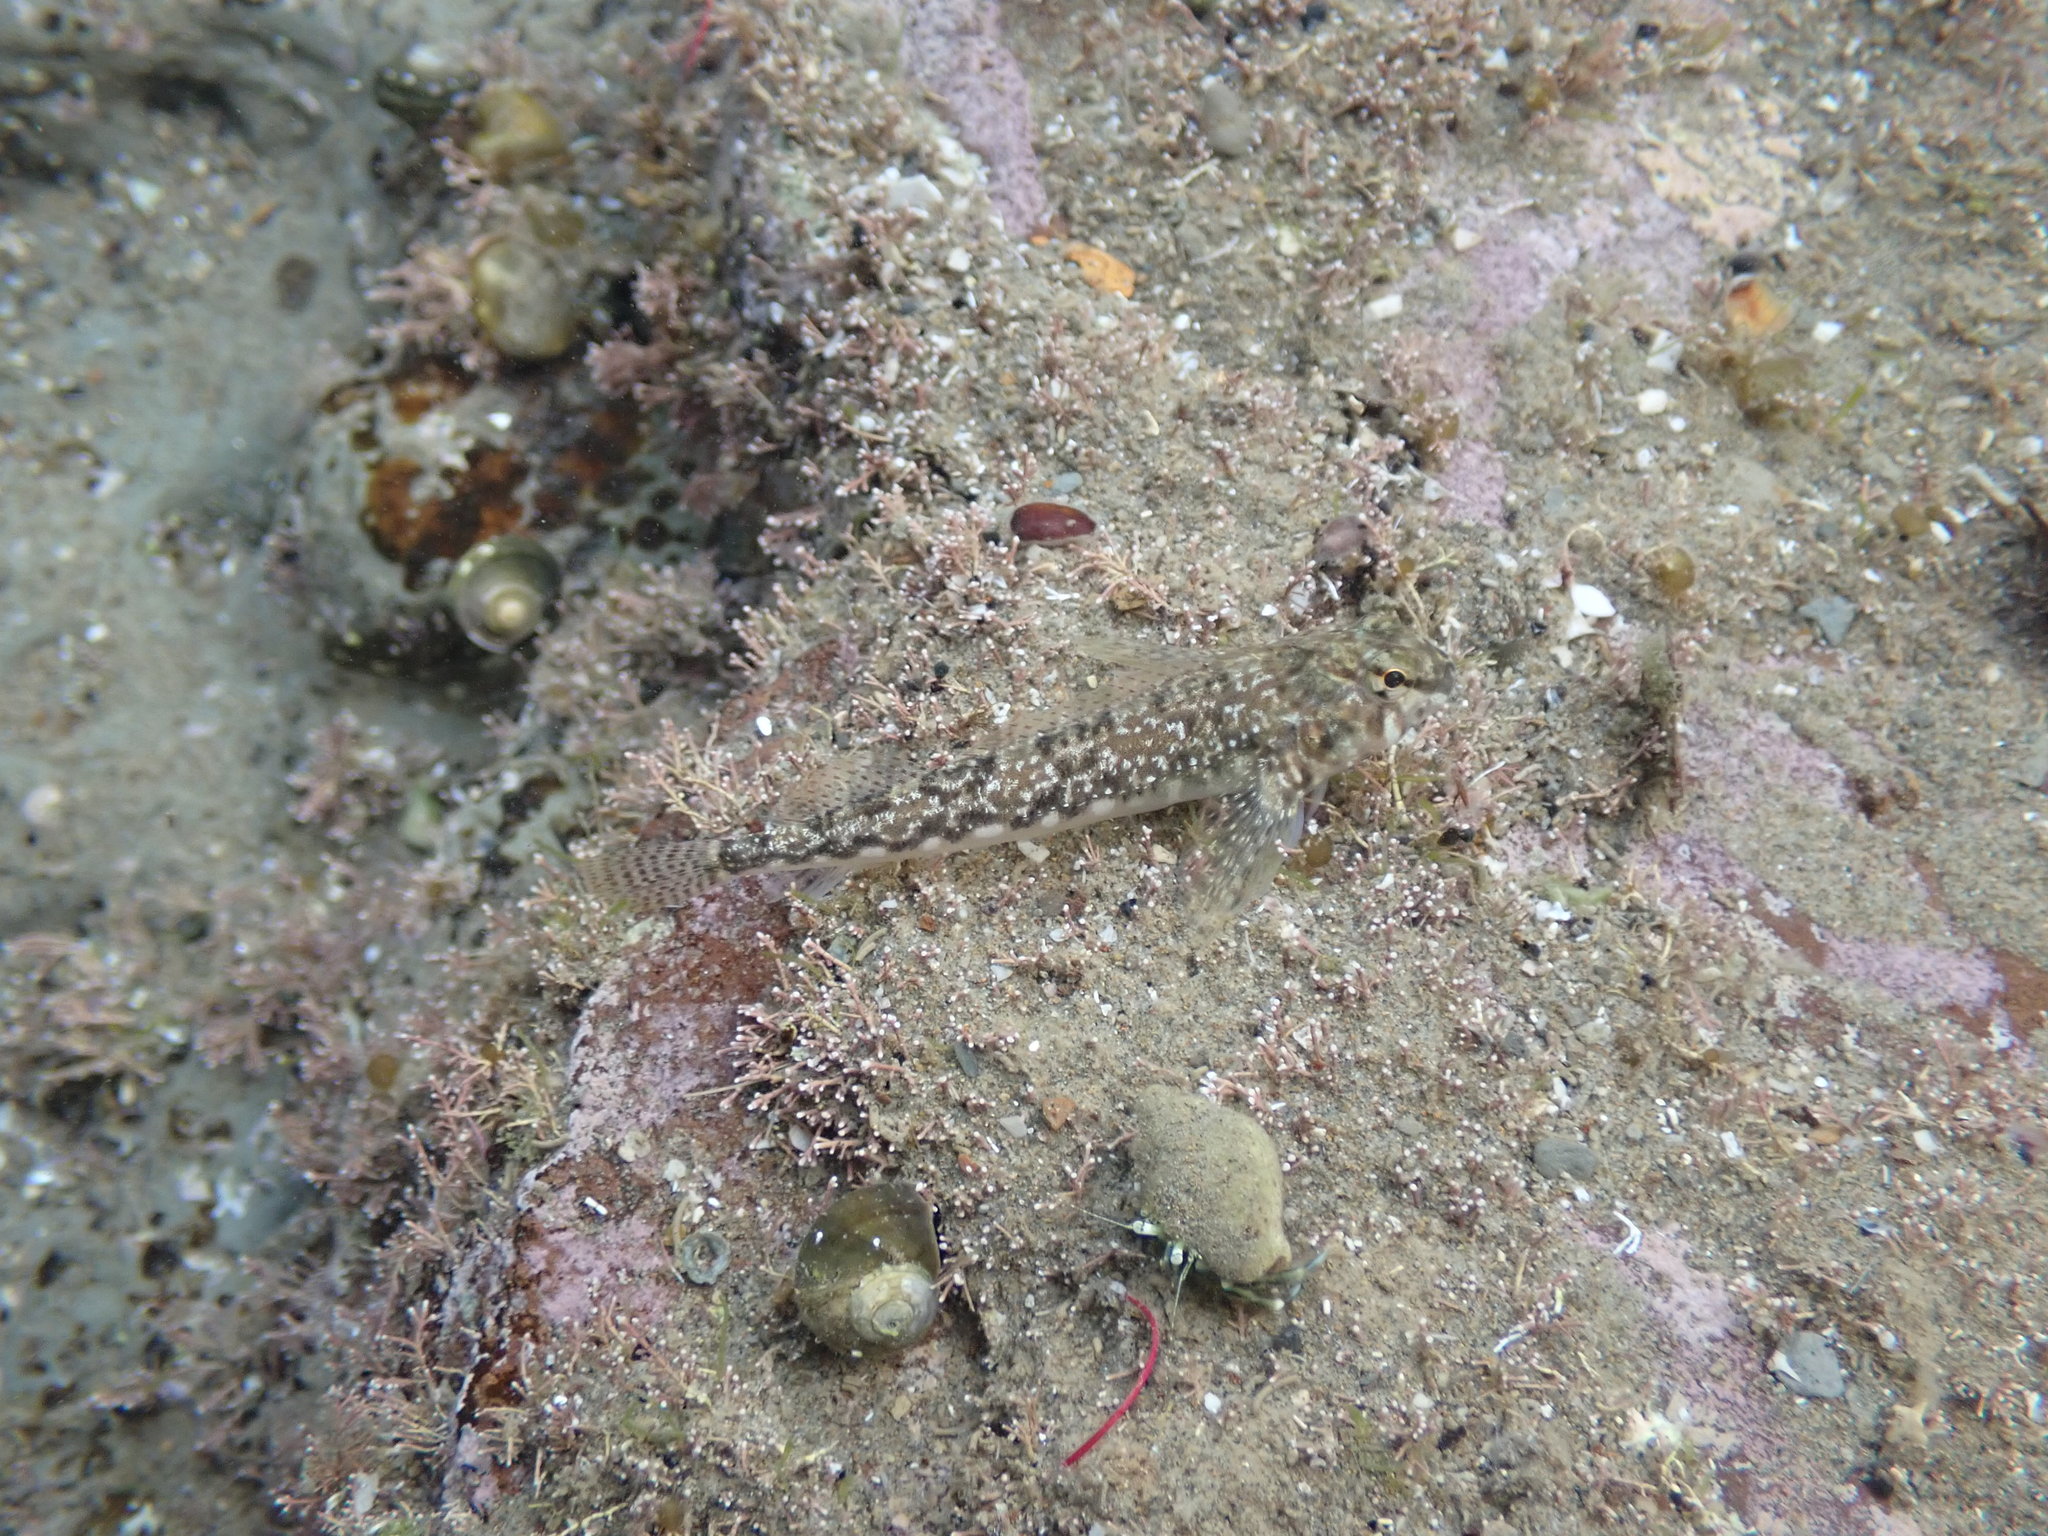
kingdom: Animalia
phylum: Chordata
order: Perciformes
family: Tripterygiidae
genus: Bellapiscis
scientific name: Bellapiscis medius
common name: Twister
